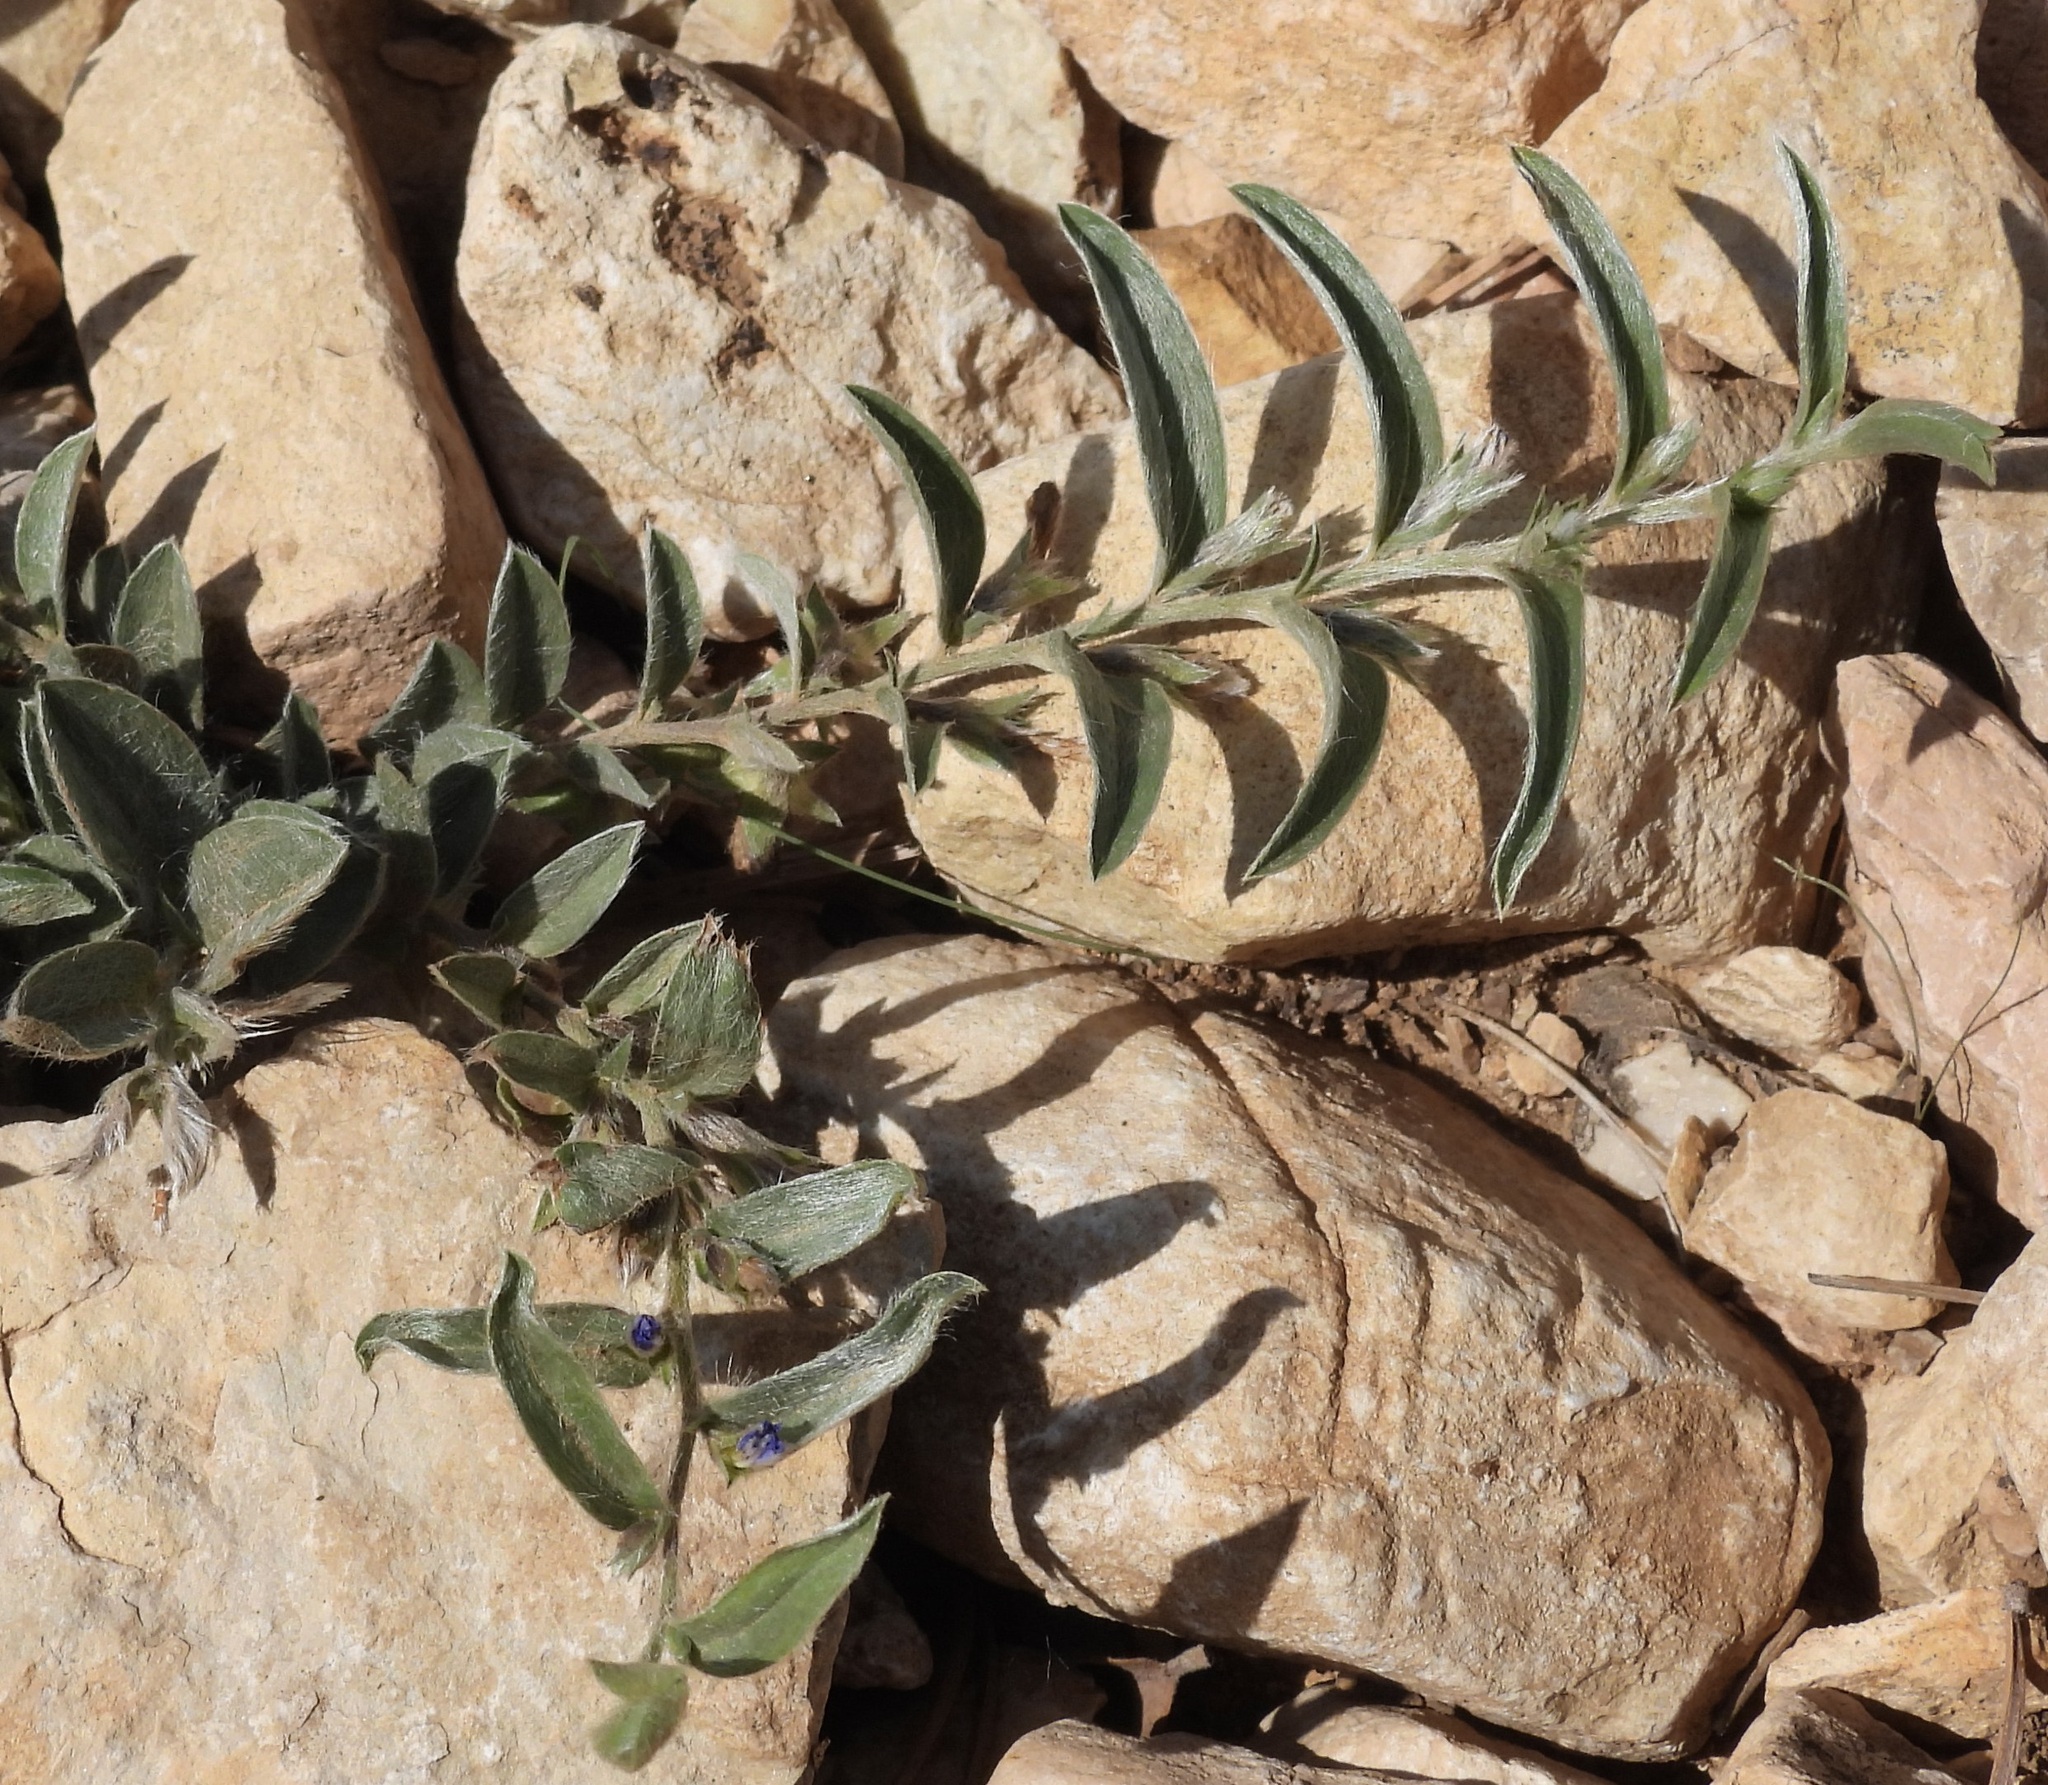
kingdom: Plantae
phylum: Tracheophyta
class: Magnoliopsida
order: Solanales
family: Convolvulaceae
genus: Evolvulus
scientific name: Evolvulus nuttallianus
